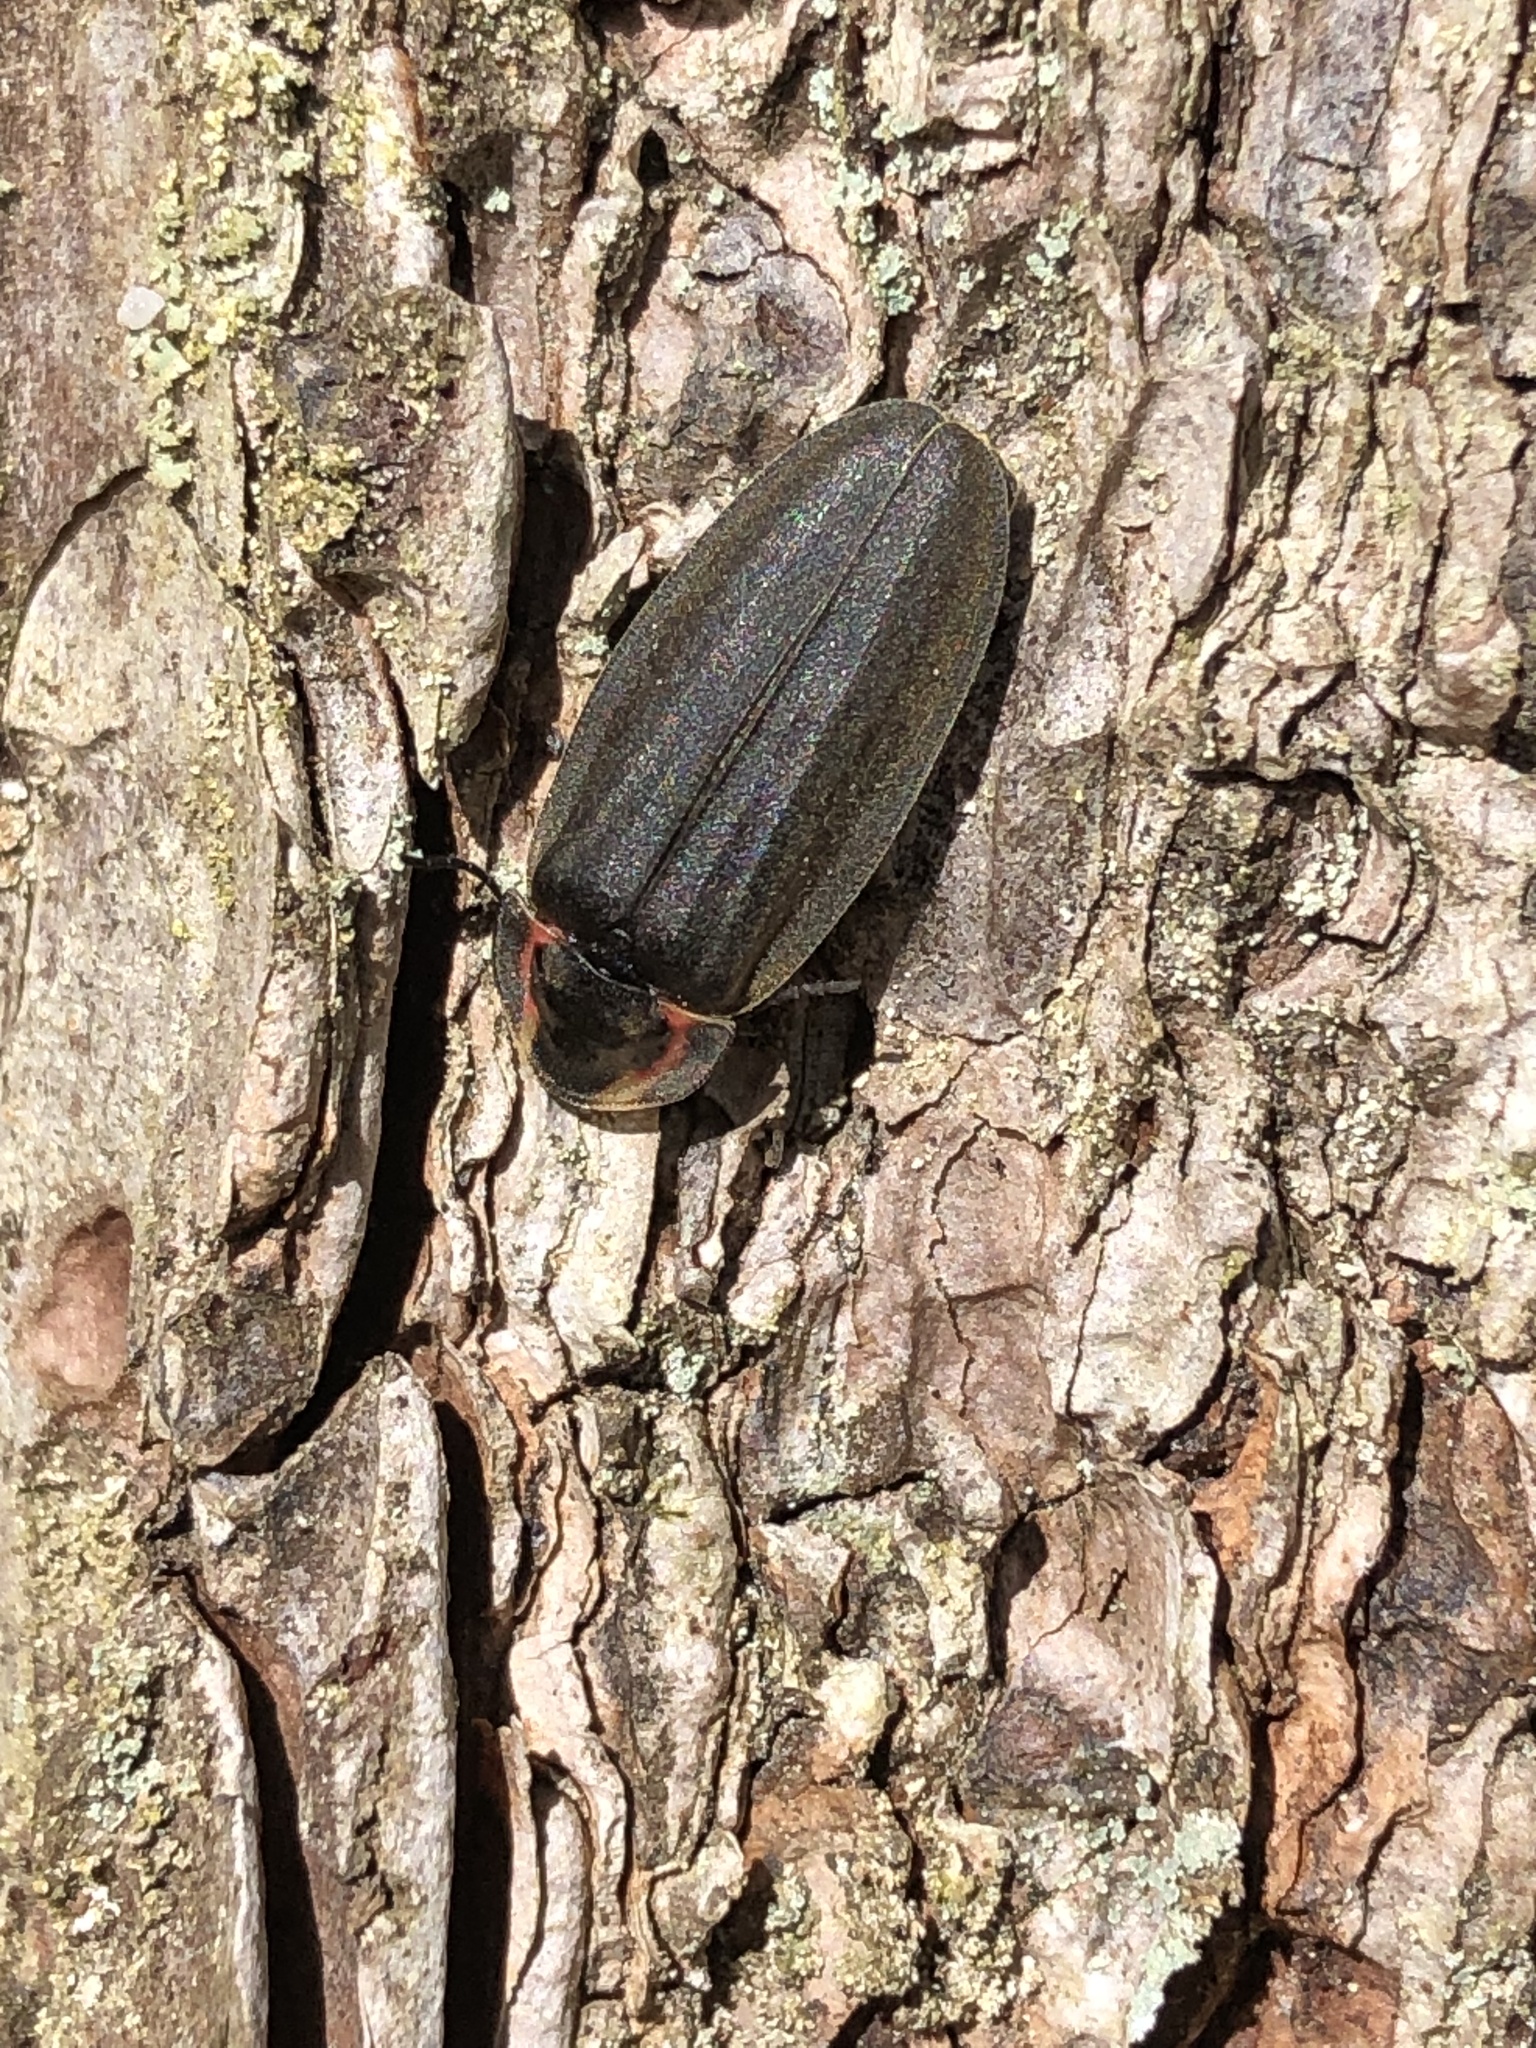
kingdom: Animalia
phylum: Arthropoda
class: Insecta
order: Coleoptera
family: Lampyridae
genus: Photinus
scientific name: Photinus corrusca
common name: Winter firefly
